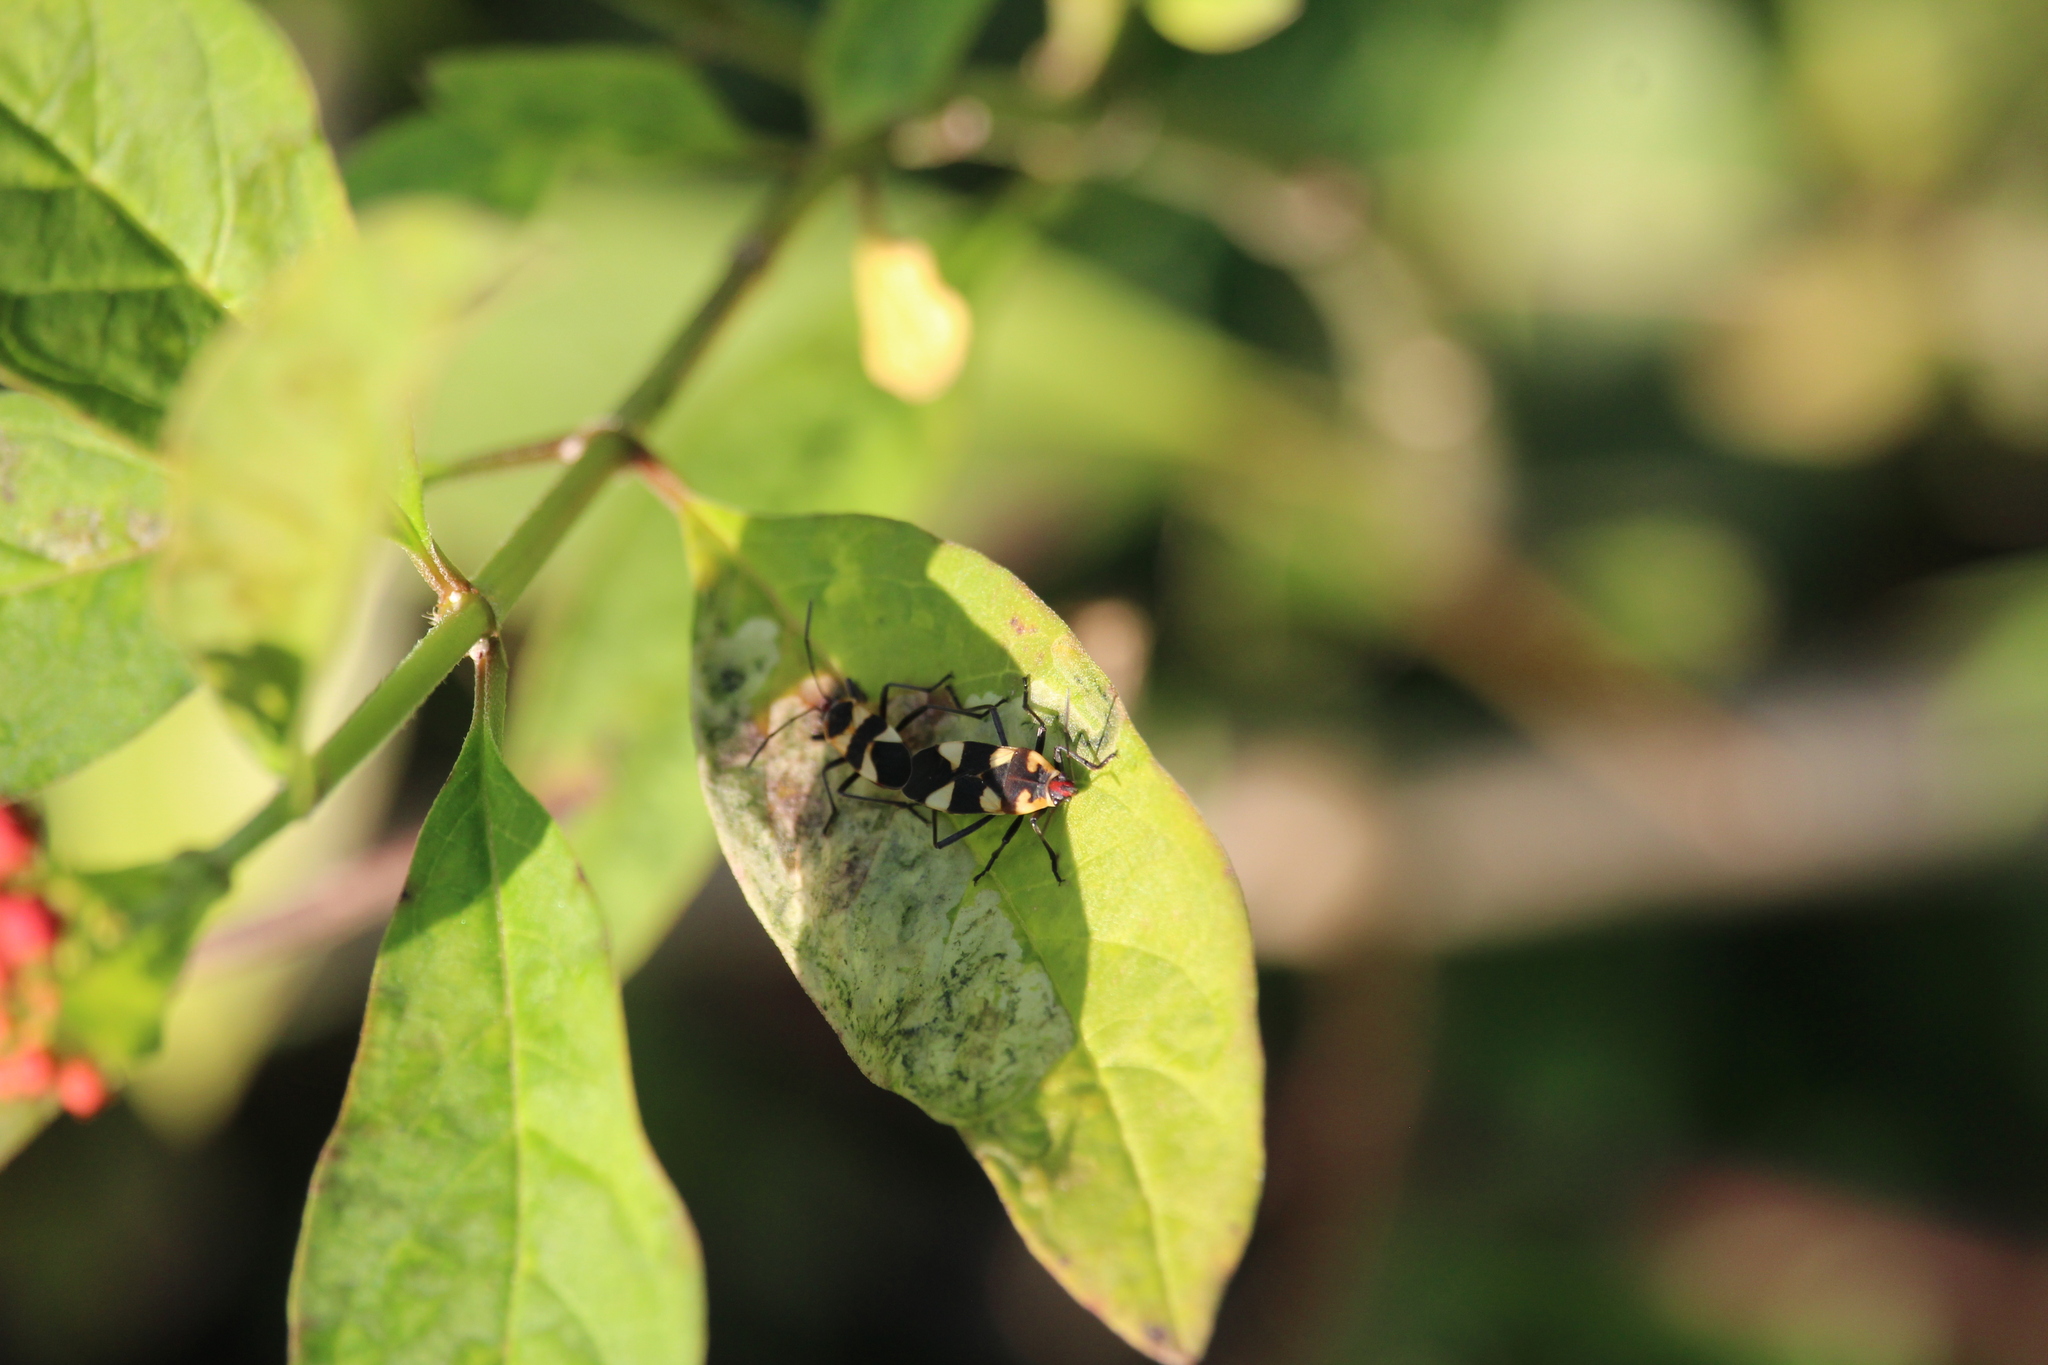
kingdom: Animalia
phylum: Arthropoda
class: Insecta
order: Hemiptera
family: Lygaeidae
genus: Oncopeltus
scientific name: Oncopeltus cingulifer
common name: Lygaeid bug
